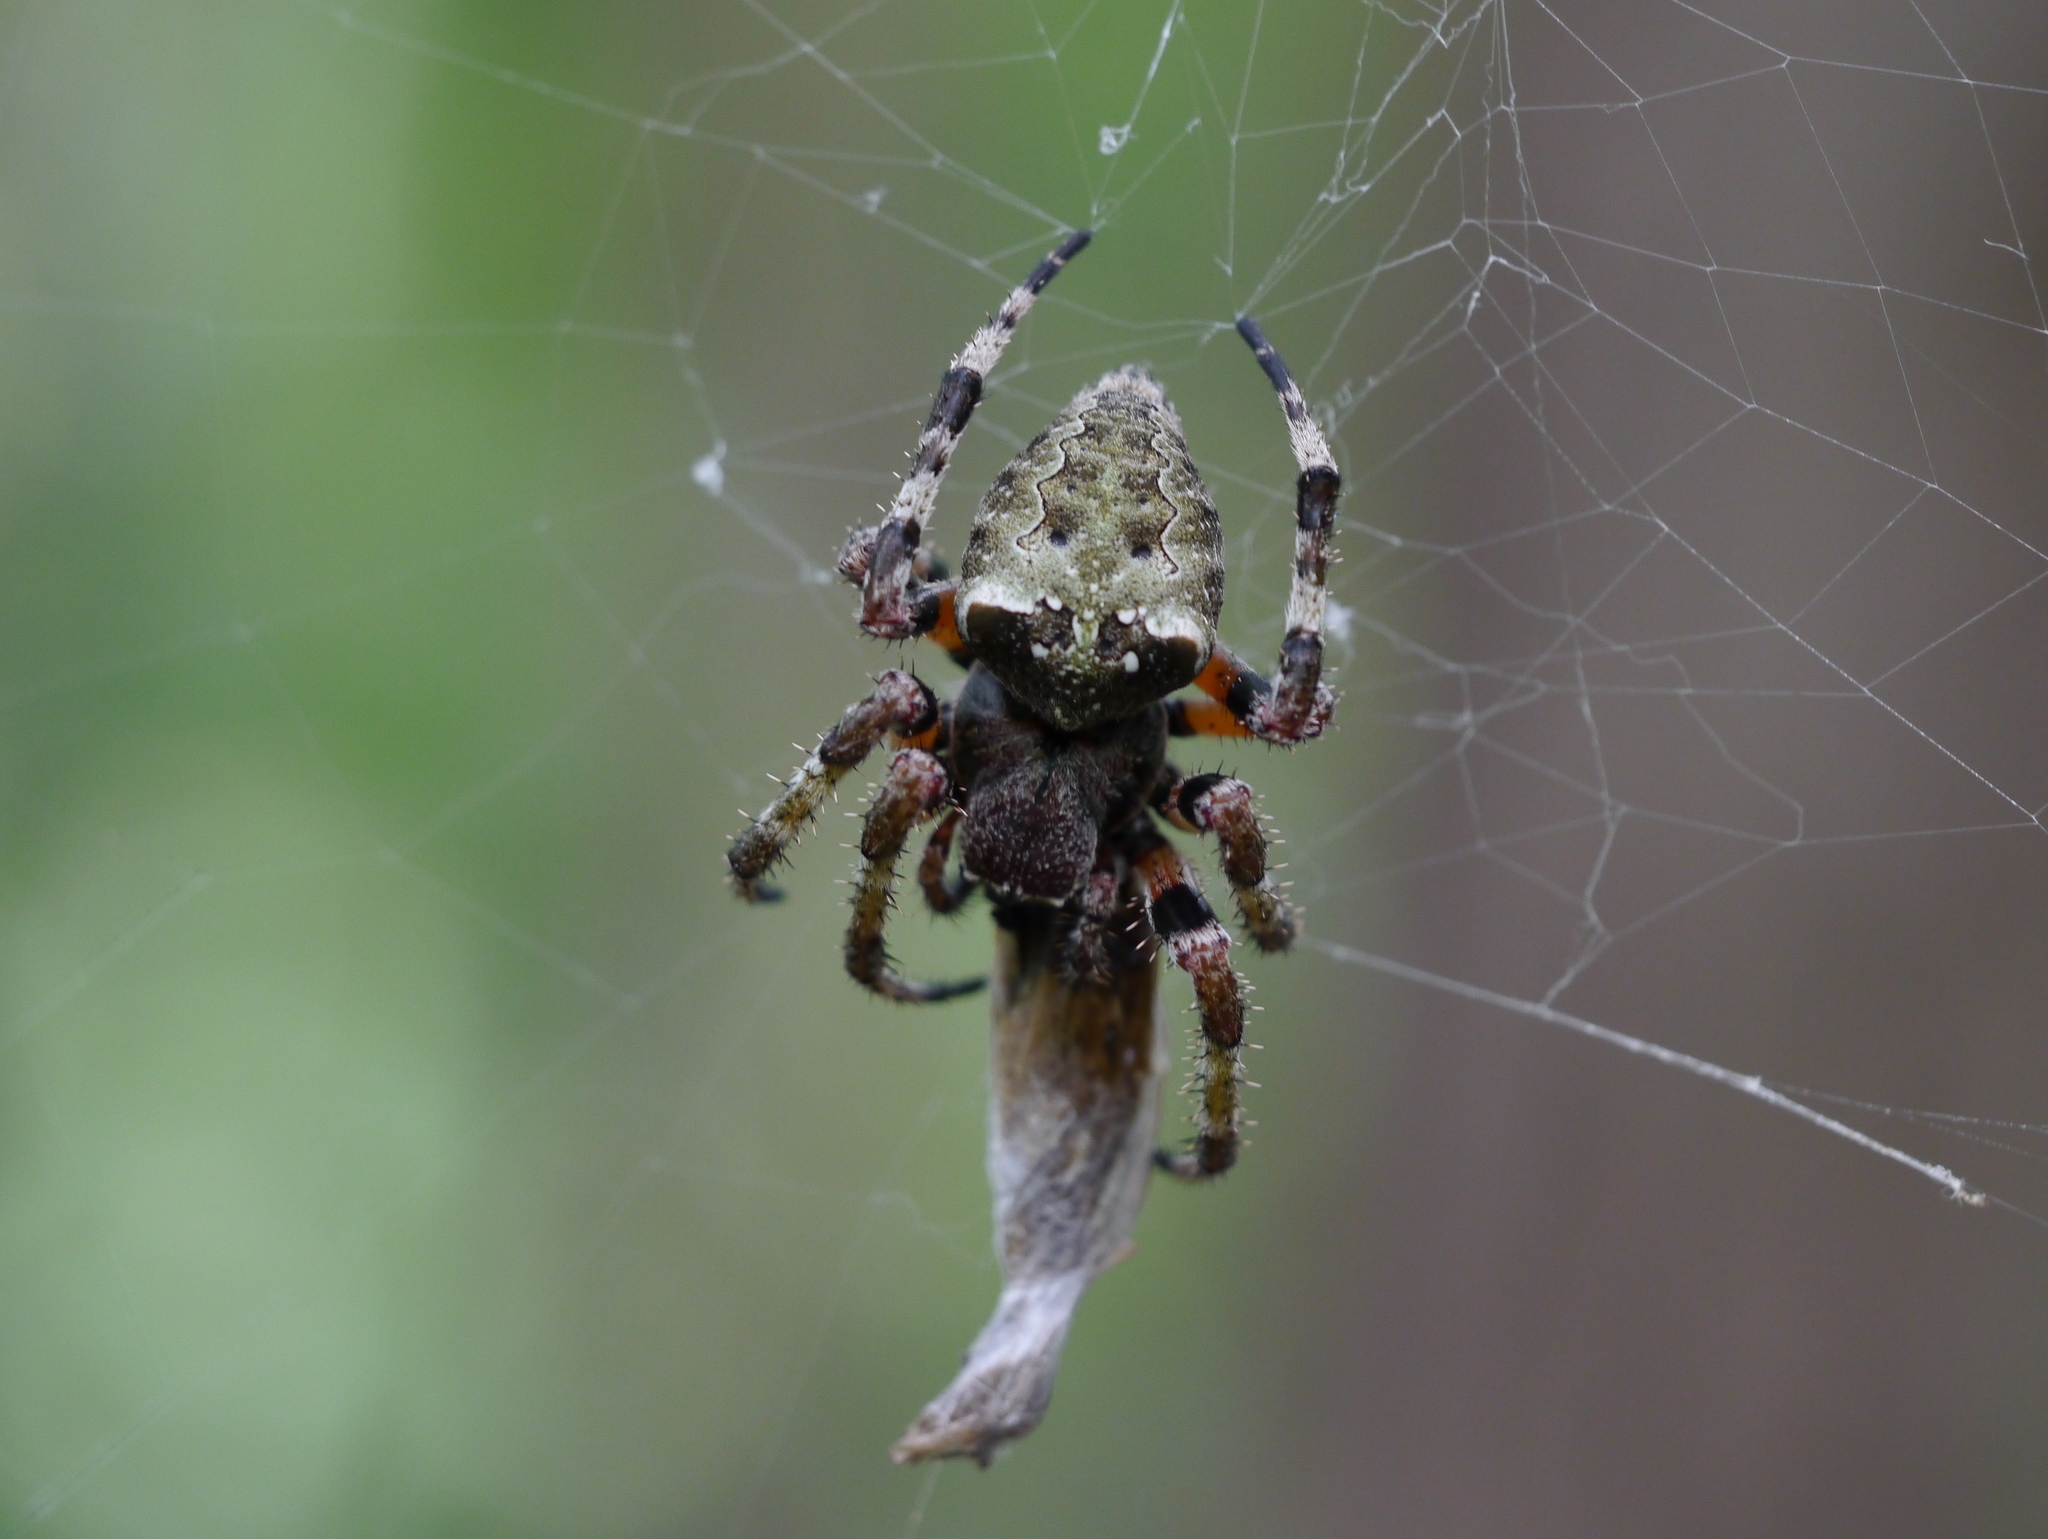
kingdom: Animalia
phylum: Arthropoda
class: Arachnida
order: Araneae
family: Araneidae
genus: Araneus
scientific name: Araneus bicentenarius
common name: Giant lichen orbweaver
